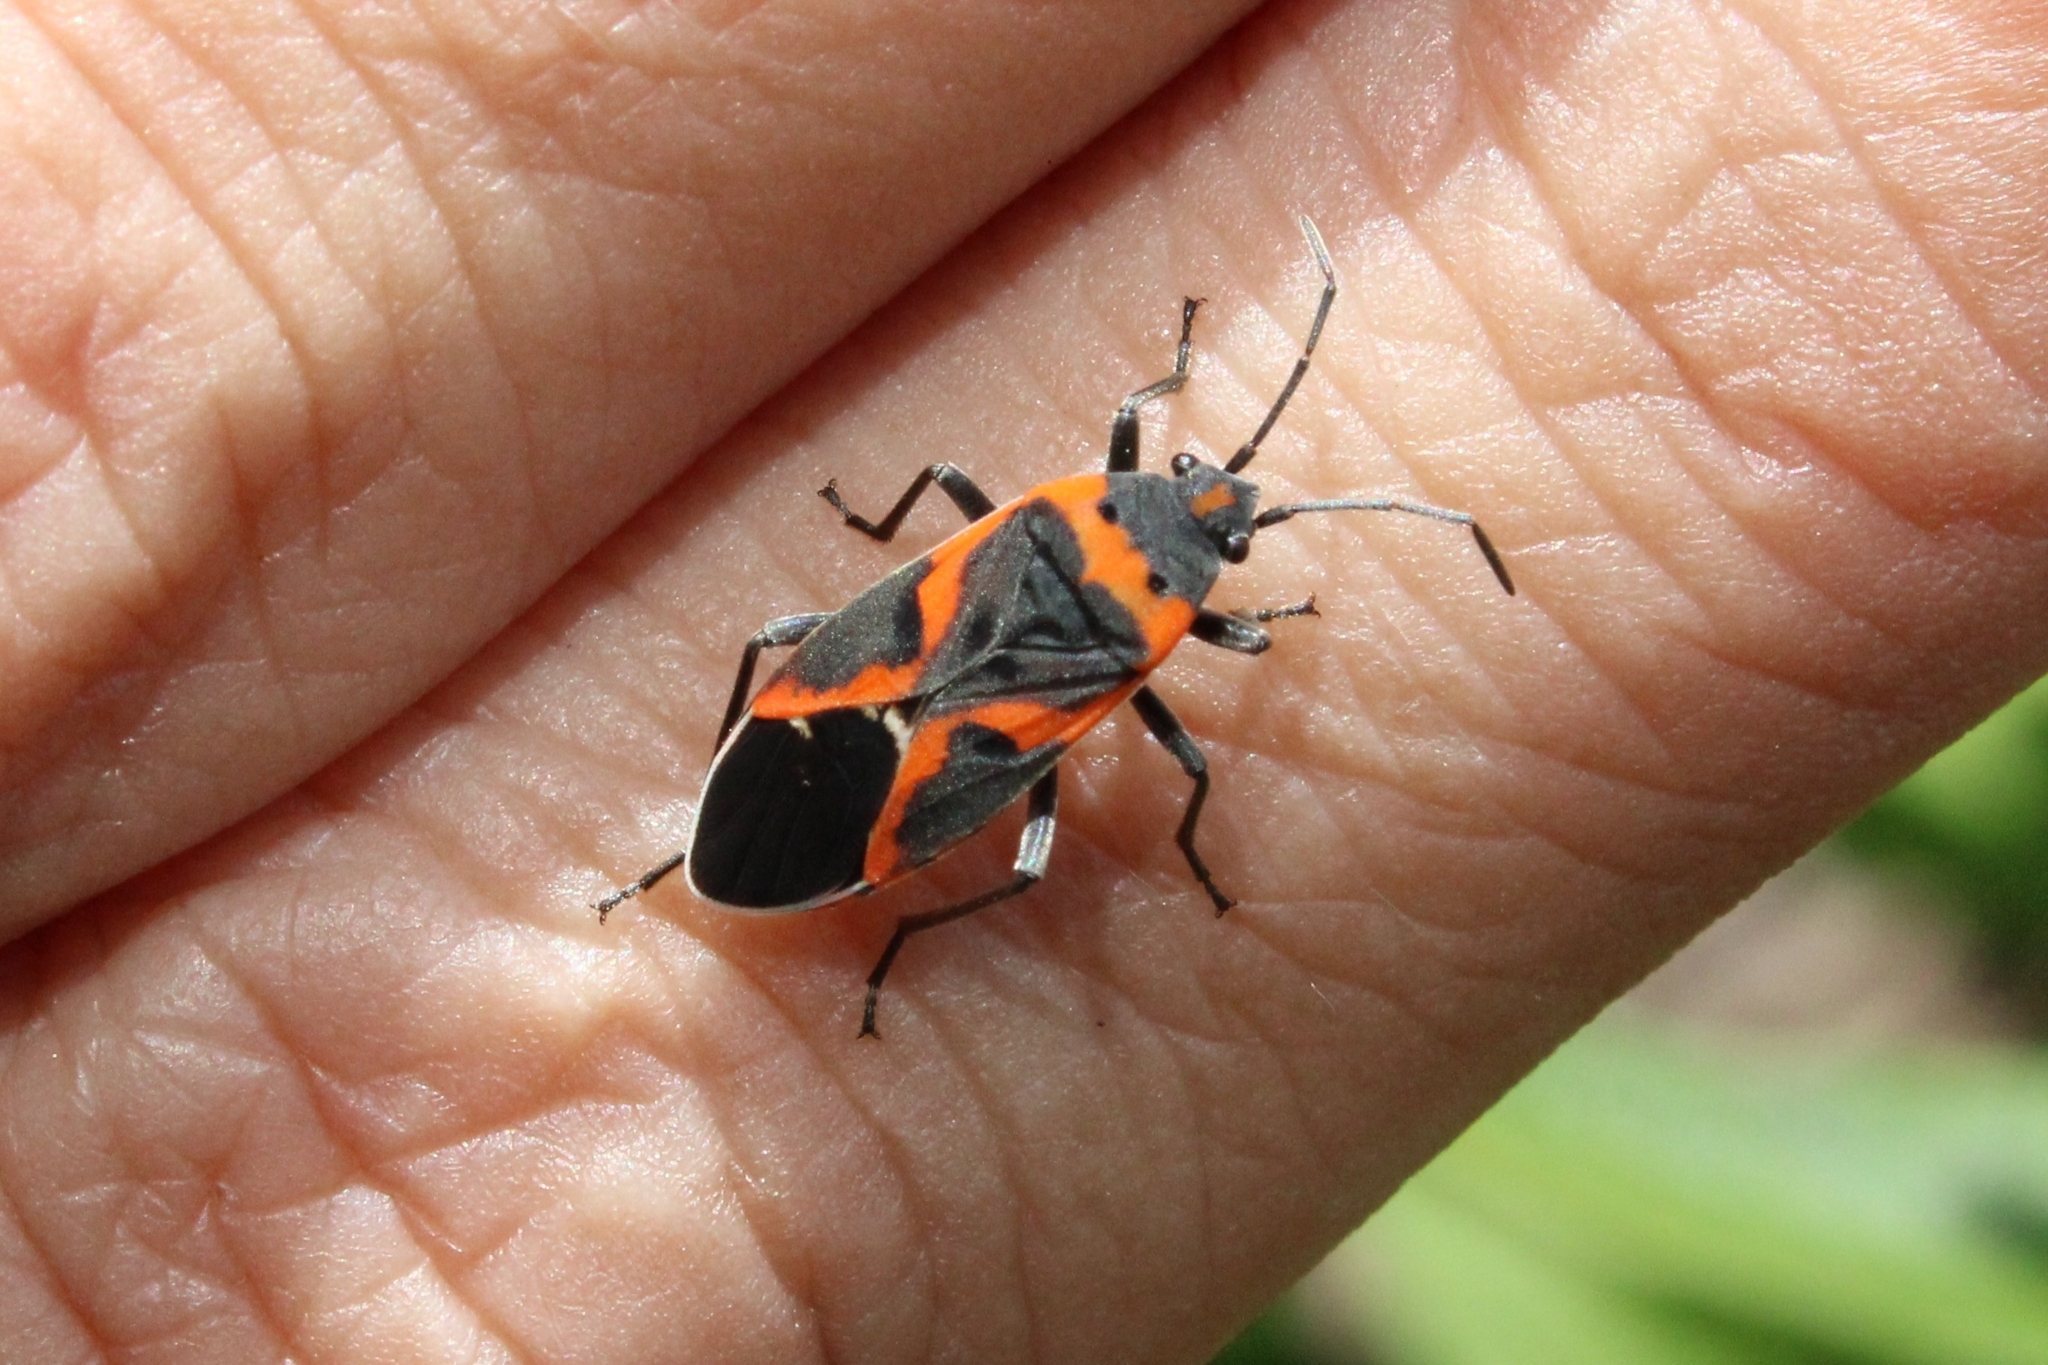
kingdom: Animalia
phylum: Arthropoda
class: Insecta
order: Hemiptera
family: Lygaeidae
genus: Lygaeus
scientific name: Lygaeus kalmii
